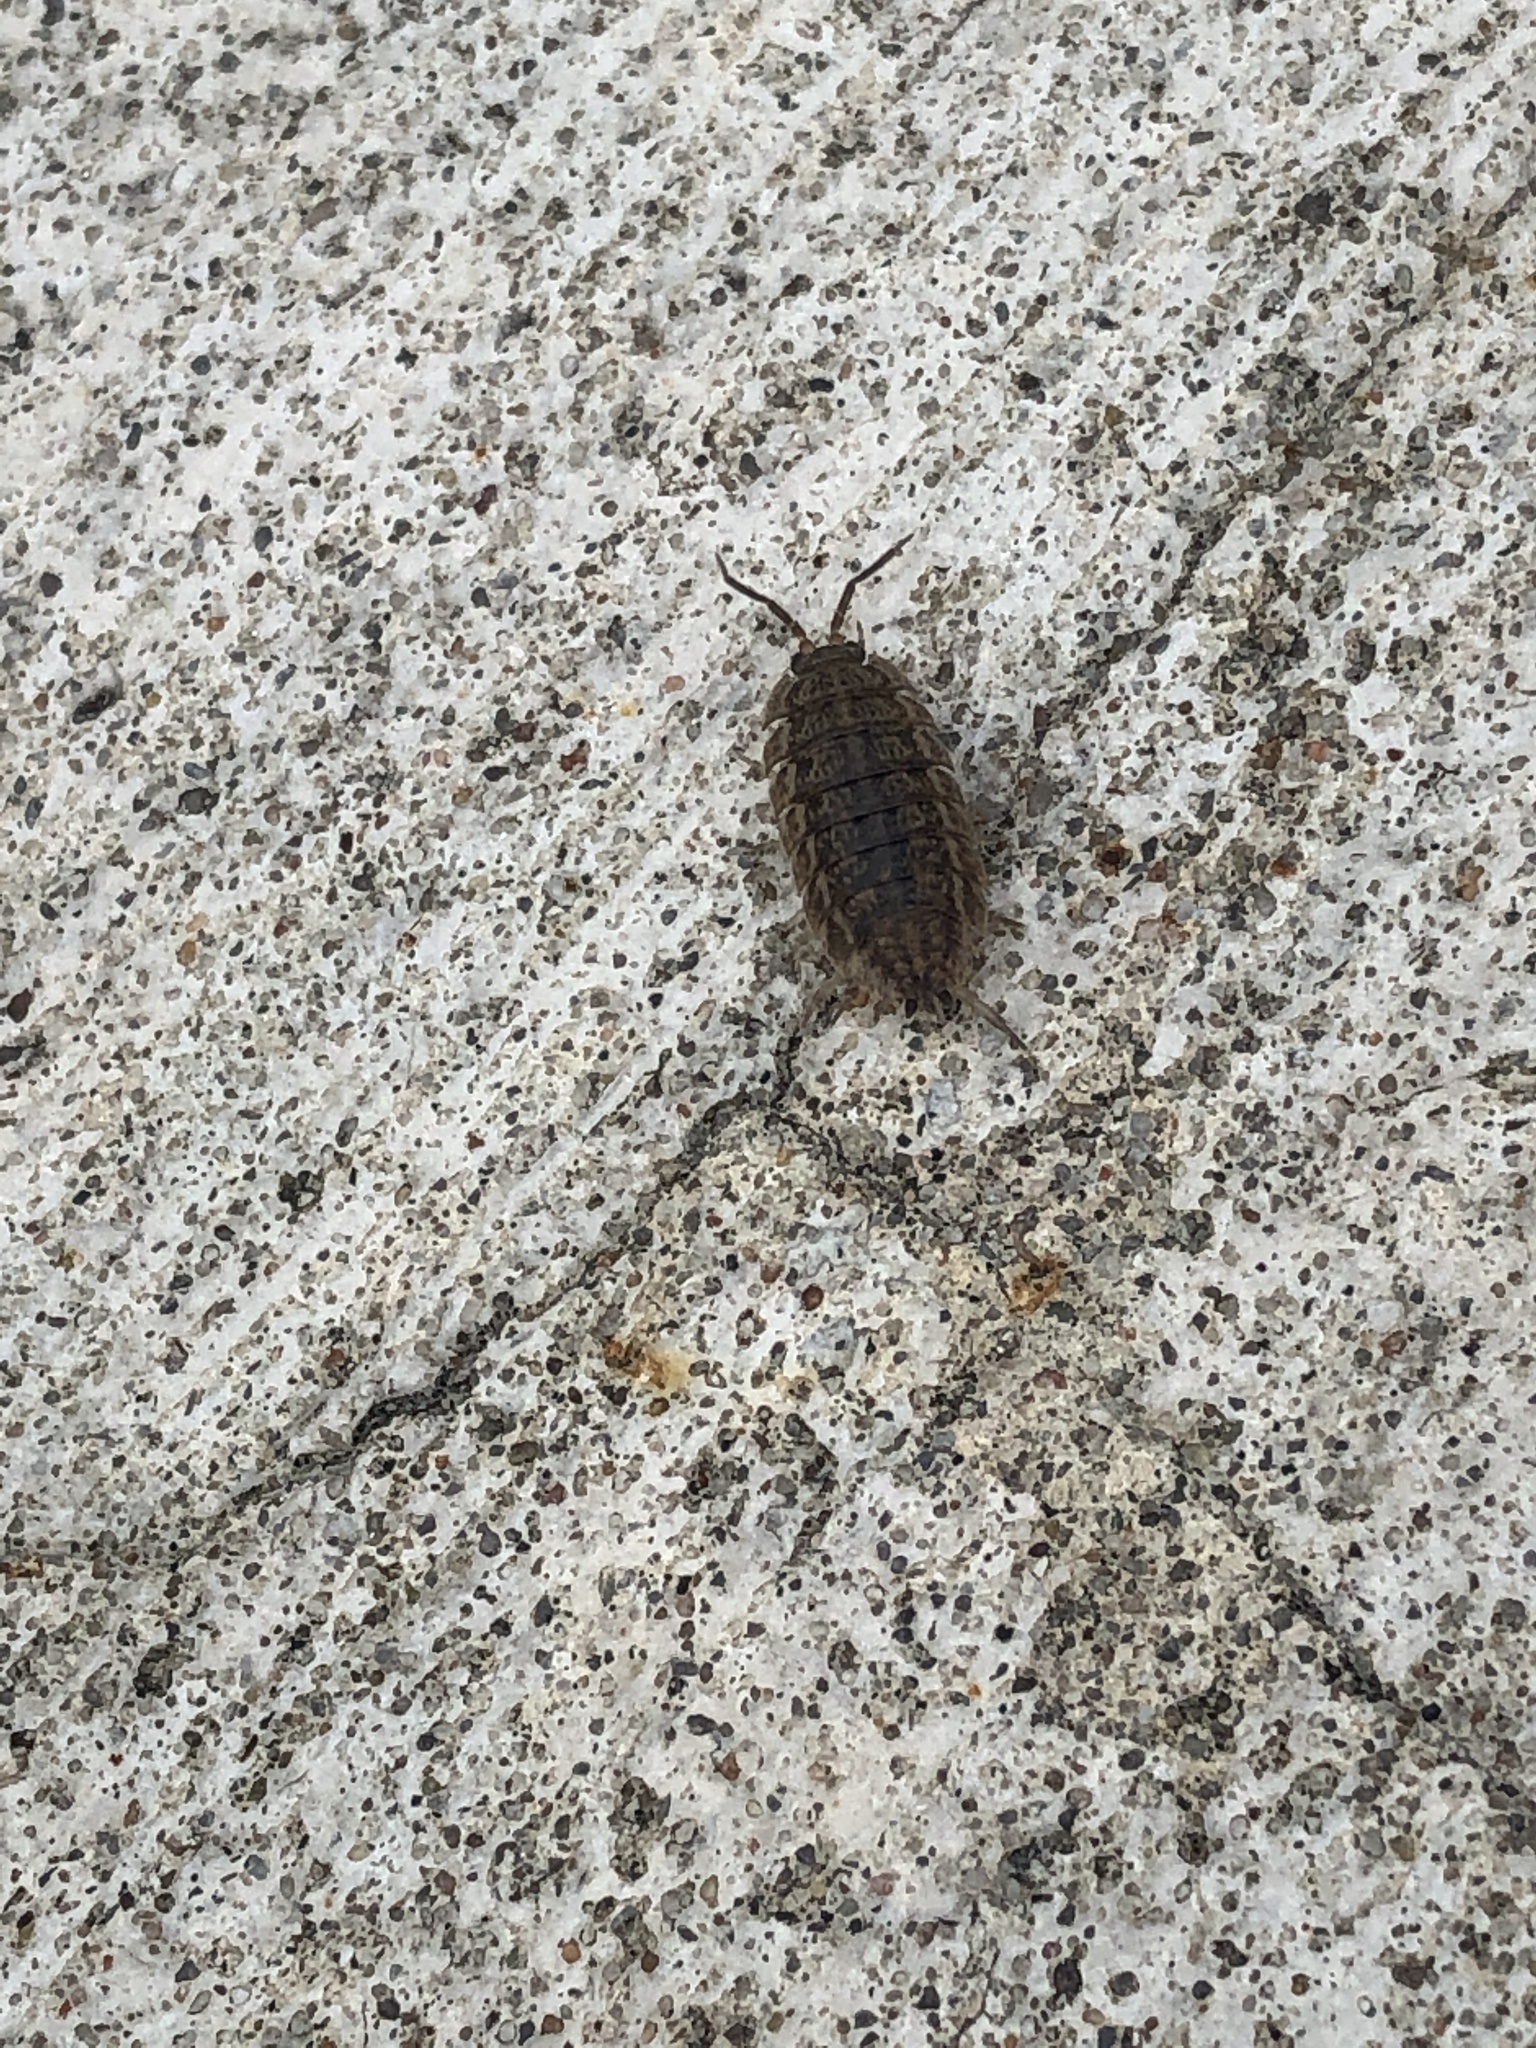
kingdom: Animalia
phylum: Arthropoda
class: Malacostraca
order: Isopoda
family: Trachelipodidae
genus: Trachelipus
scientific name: Trachelipus rathkii
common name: Isopod
